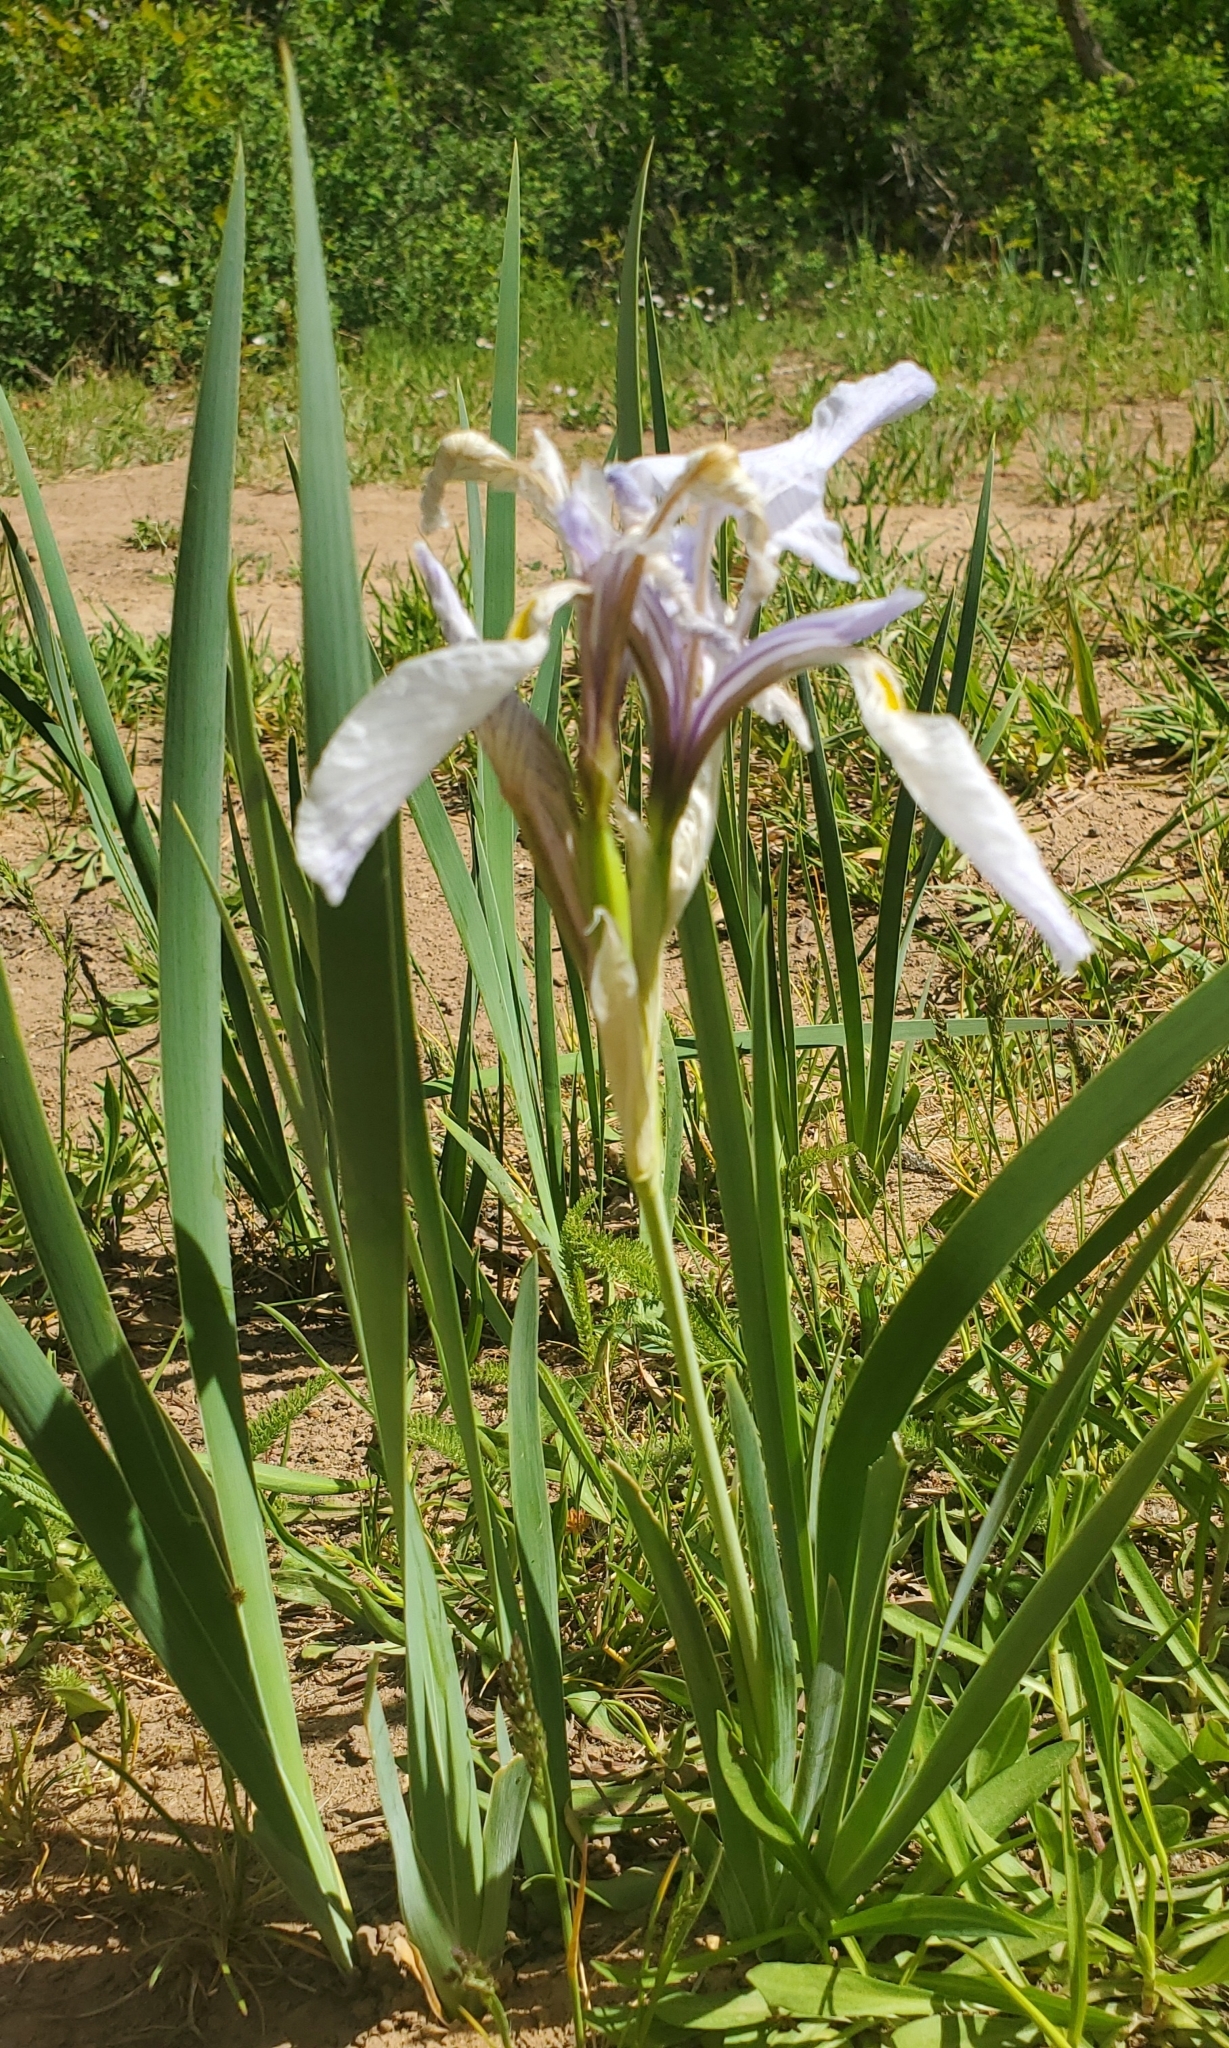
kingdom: Plantae
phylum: Tracheophyta
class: Liliopsida
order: Asparagales
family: Iridaceae
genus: Iris
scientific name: Iris missouriensis
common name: Rocky mountain iris
